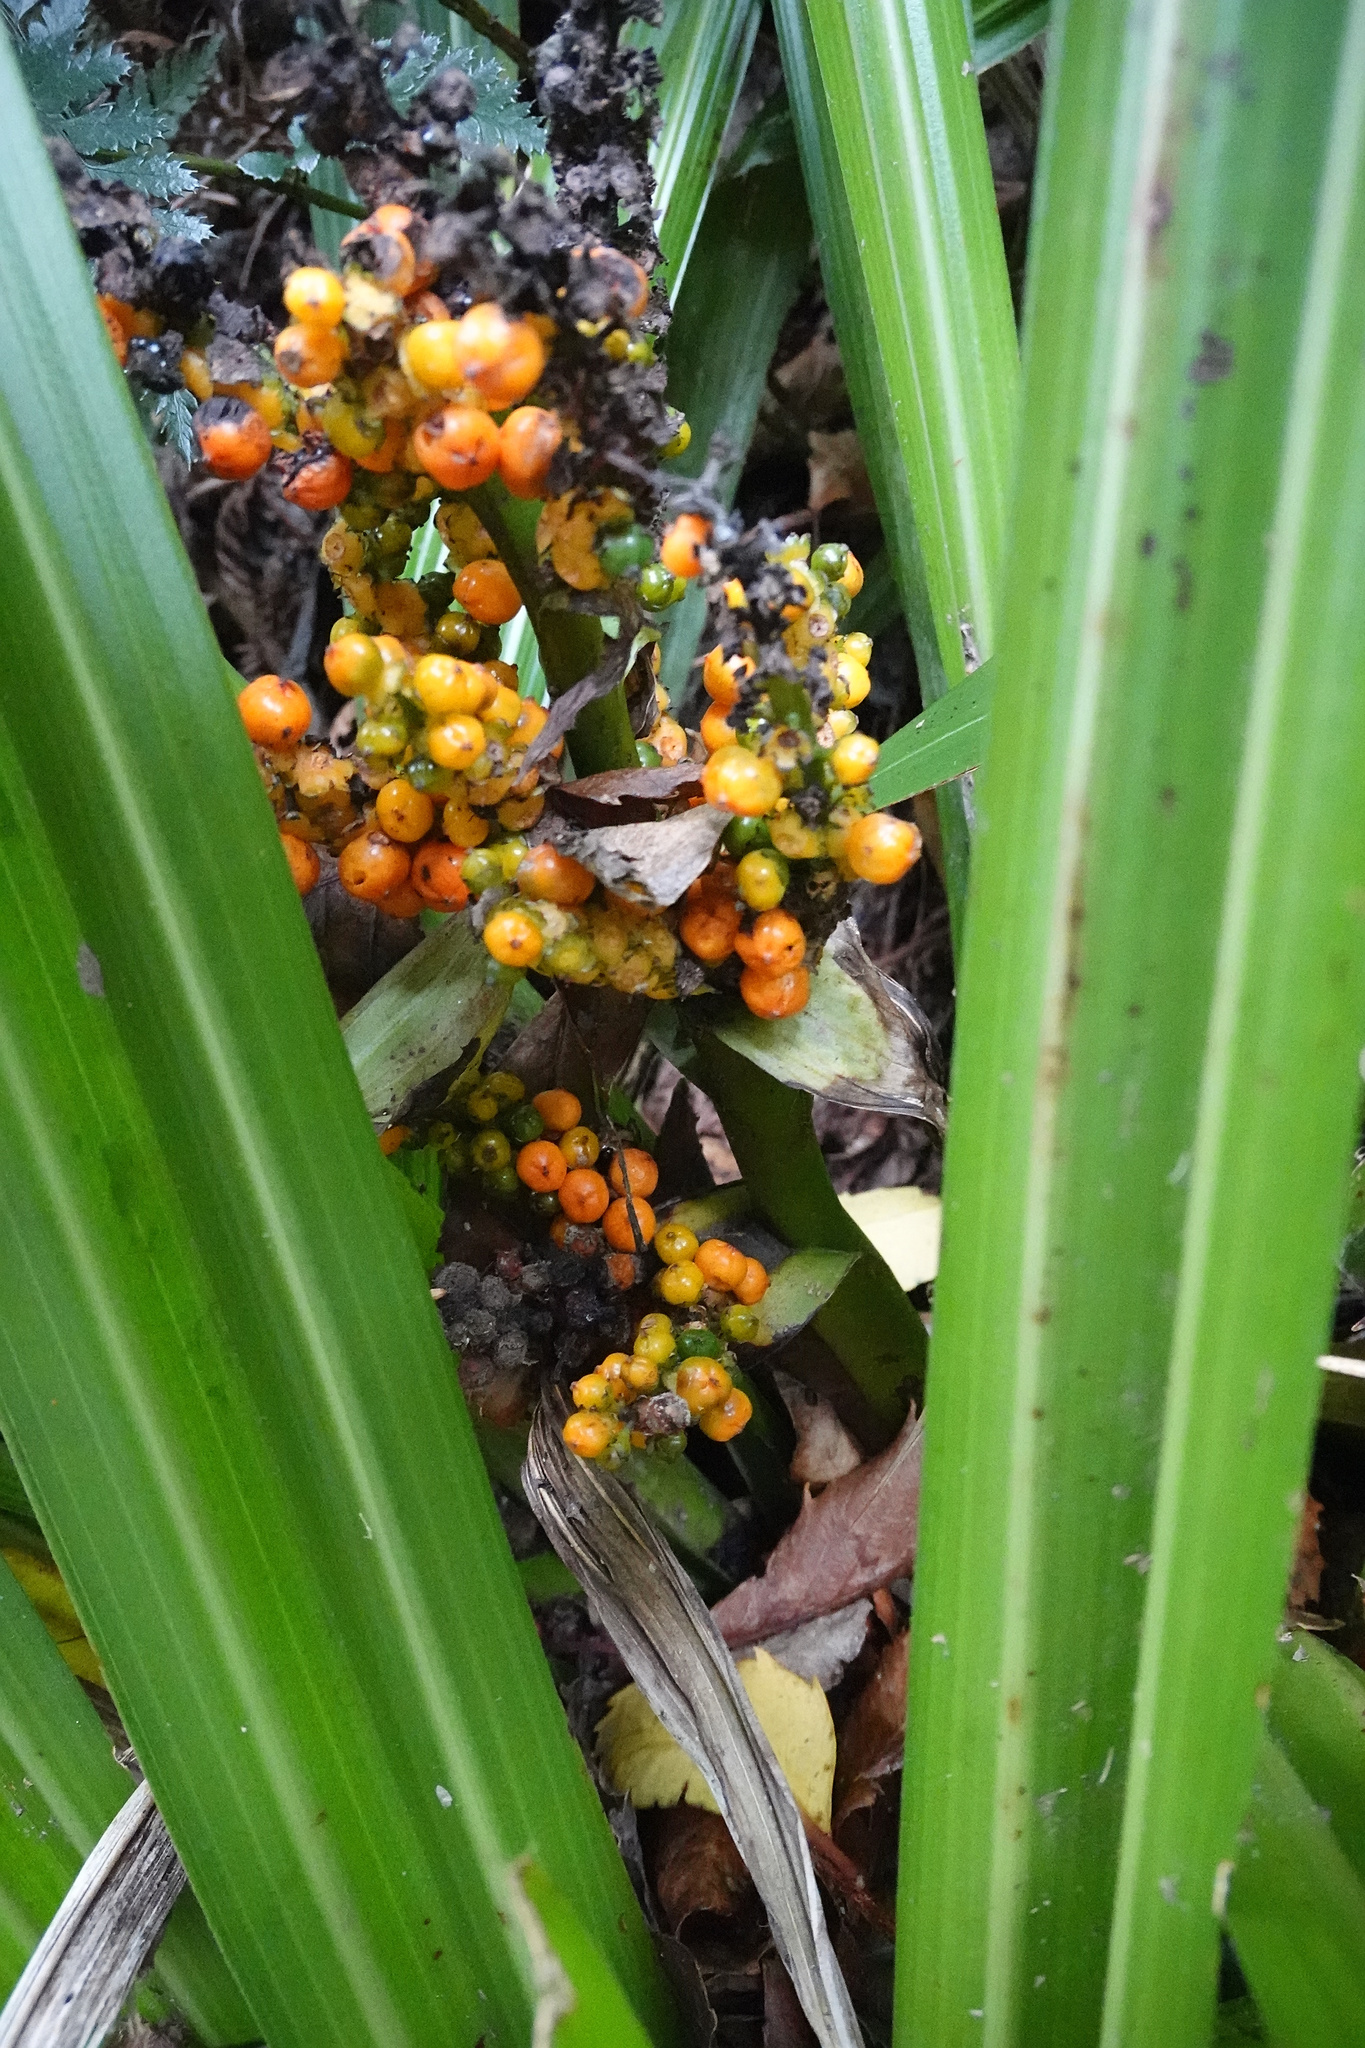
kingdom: Plantae
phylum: Tracheophyta
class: Liliopsida
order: Asparagales
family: Asteliaceae
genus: Astelia
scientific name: Astelia fragrans
